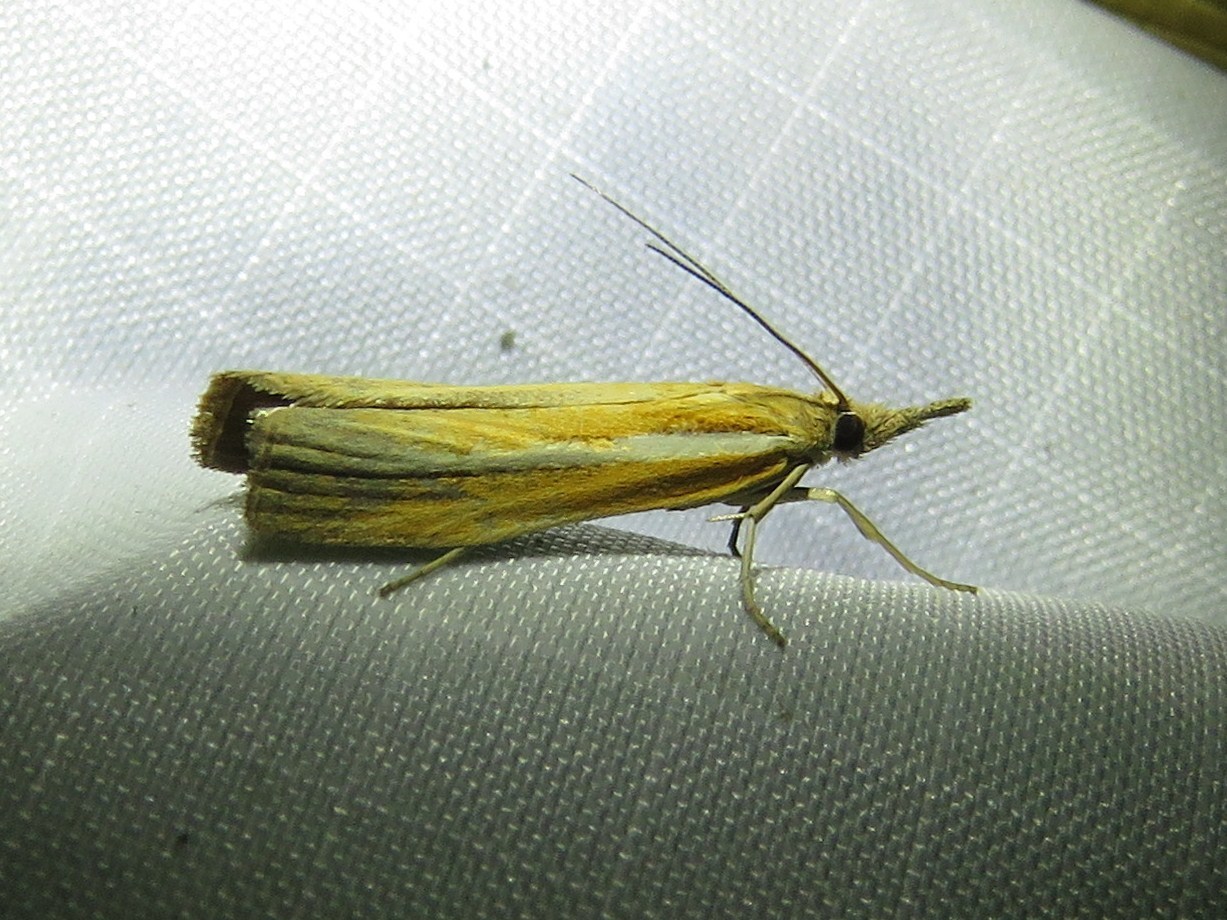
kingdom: Animalia
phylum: Arthropoda
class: Insecta
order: Lepidoptera
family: Crambidae
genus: Agriphila
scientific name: Agriphila tristellus
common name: Common grass-veneer
